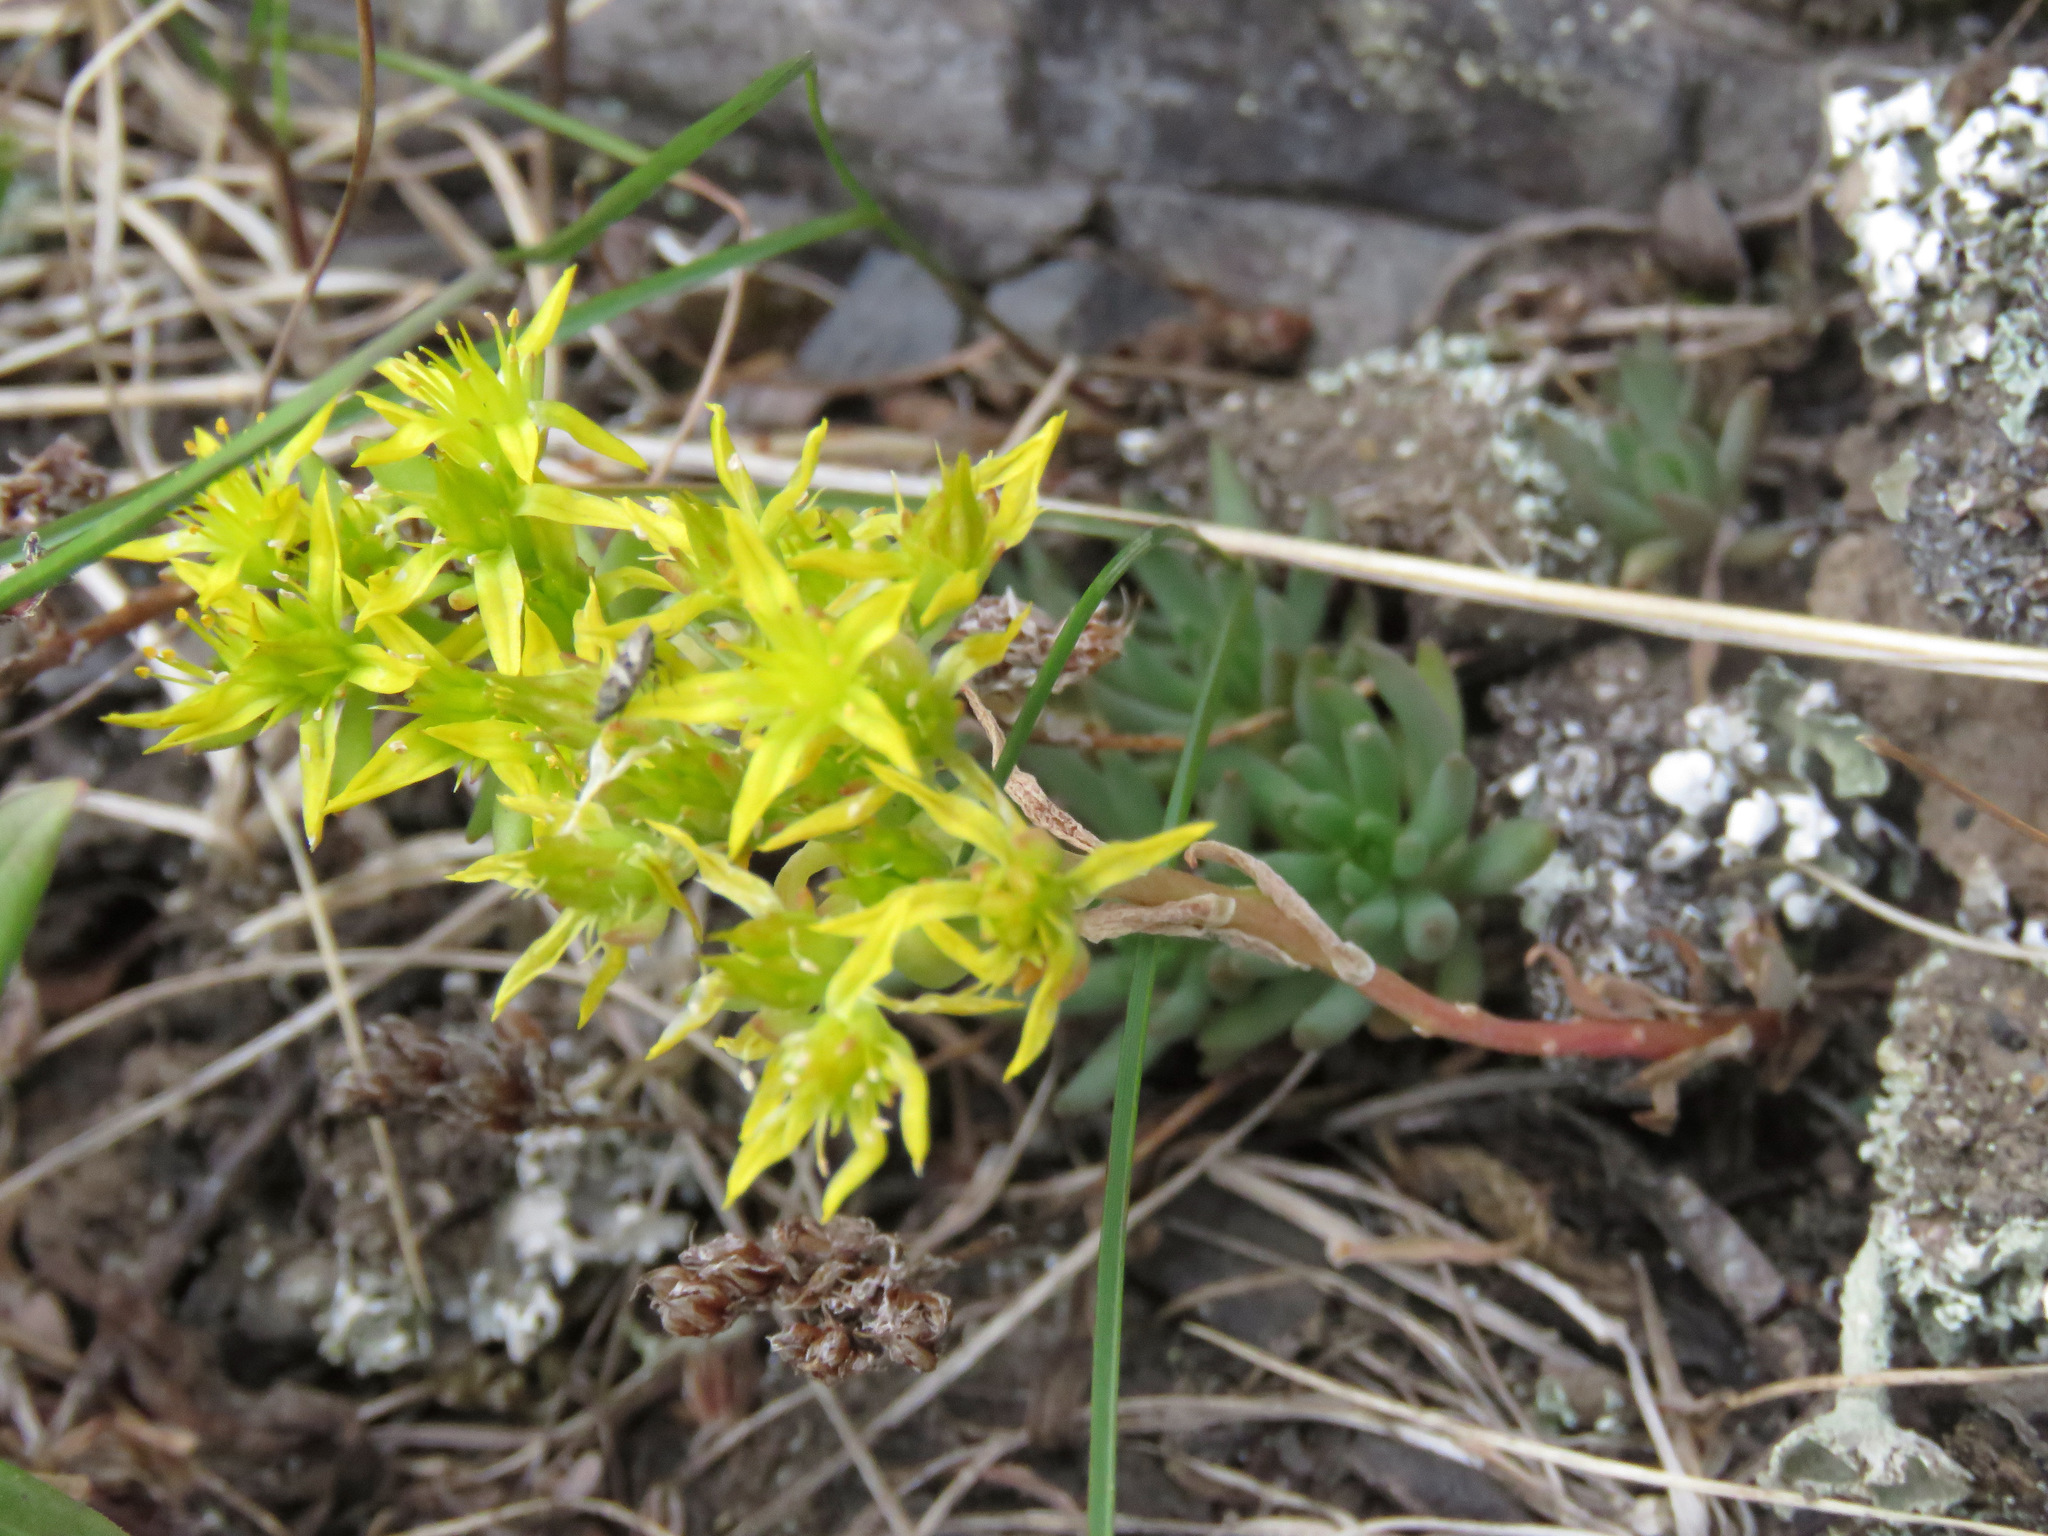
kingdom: Plantae
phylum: Tracheophyta
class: Magnoliopsida
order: Saxifragales
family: Crassulaceae
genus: Sedum
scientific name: Sedum lanceolatum
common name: Common stonecrop
